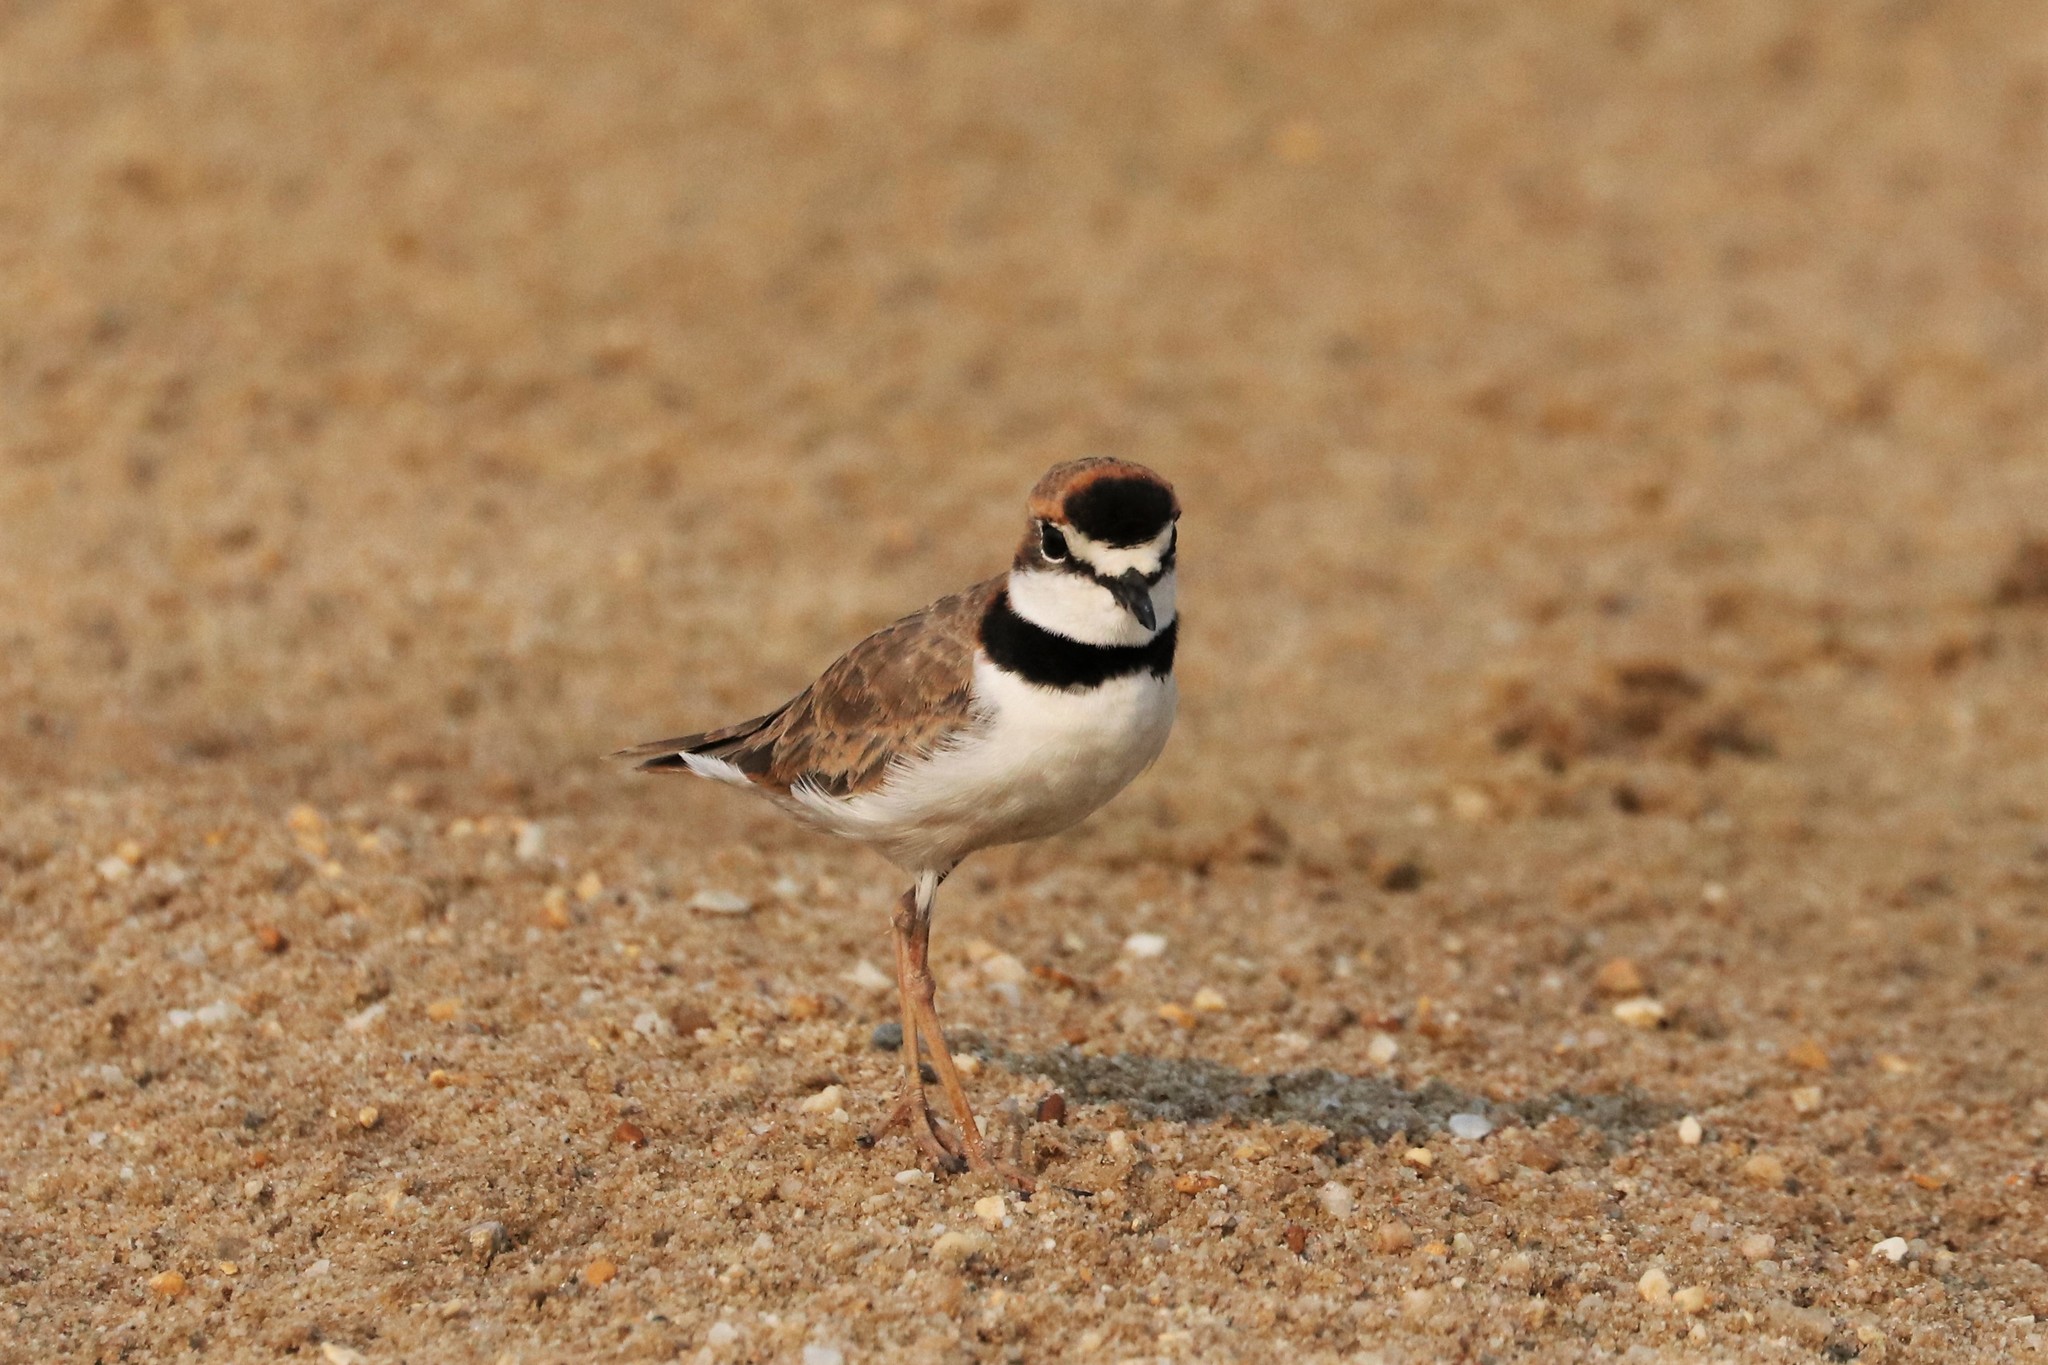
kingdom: Animalia
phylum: Chordata
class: Aves
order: Charadriiformes
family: Charadriidae
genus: Anarhynchus
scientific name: Anarhynchus
